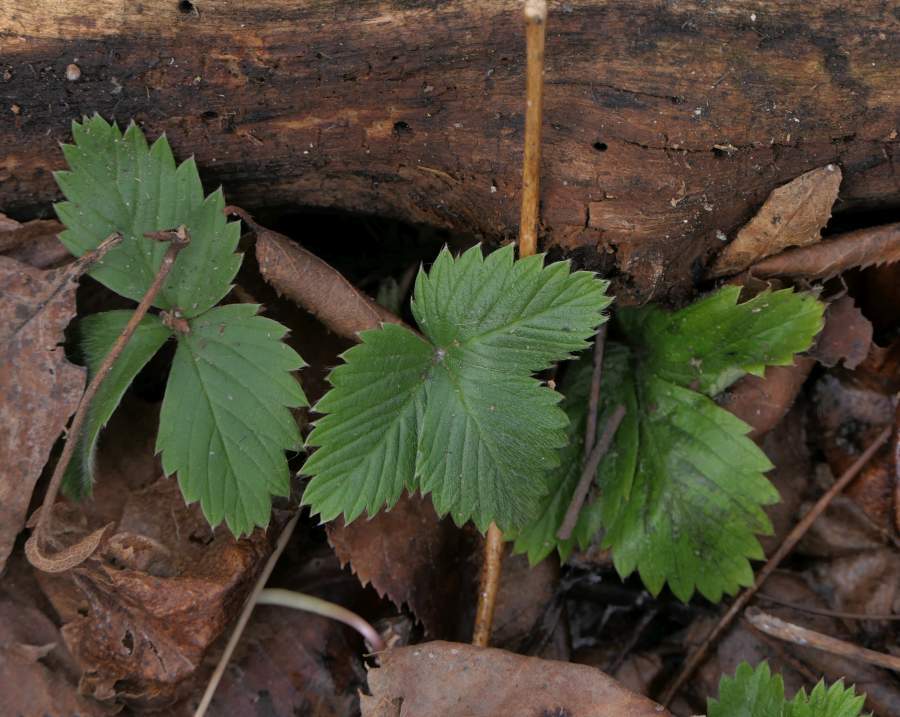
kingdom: Plantae
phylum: Tracheophyta
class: Magnoliopsida
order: Rosales
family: Rosaceae
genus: Fragaria
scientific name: Fragaria virginiana
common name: Thickleaved wild strawberry
